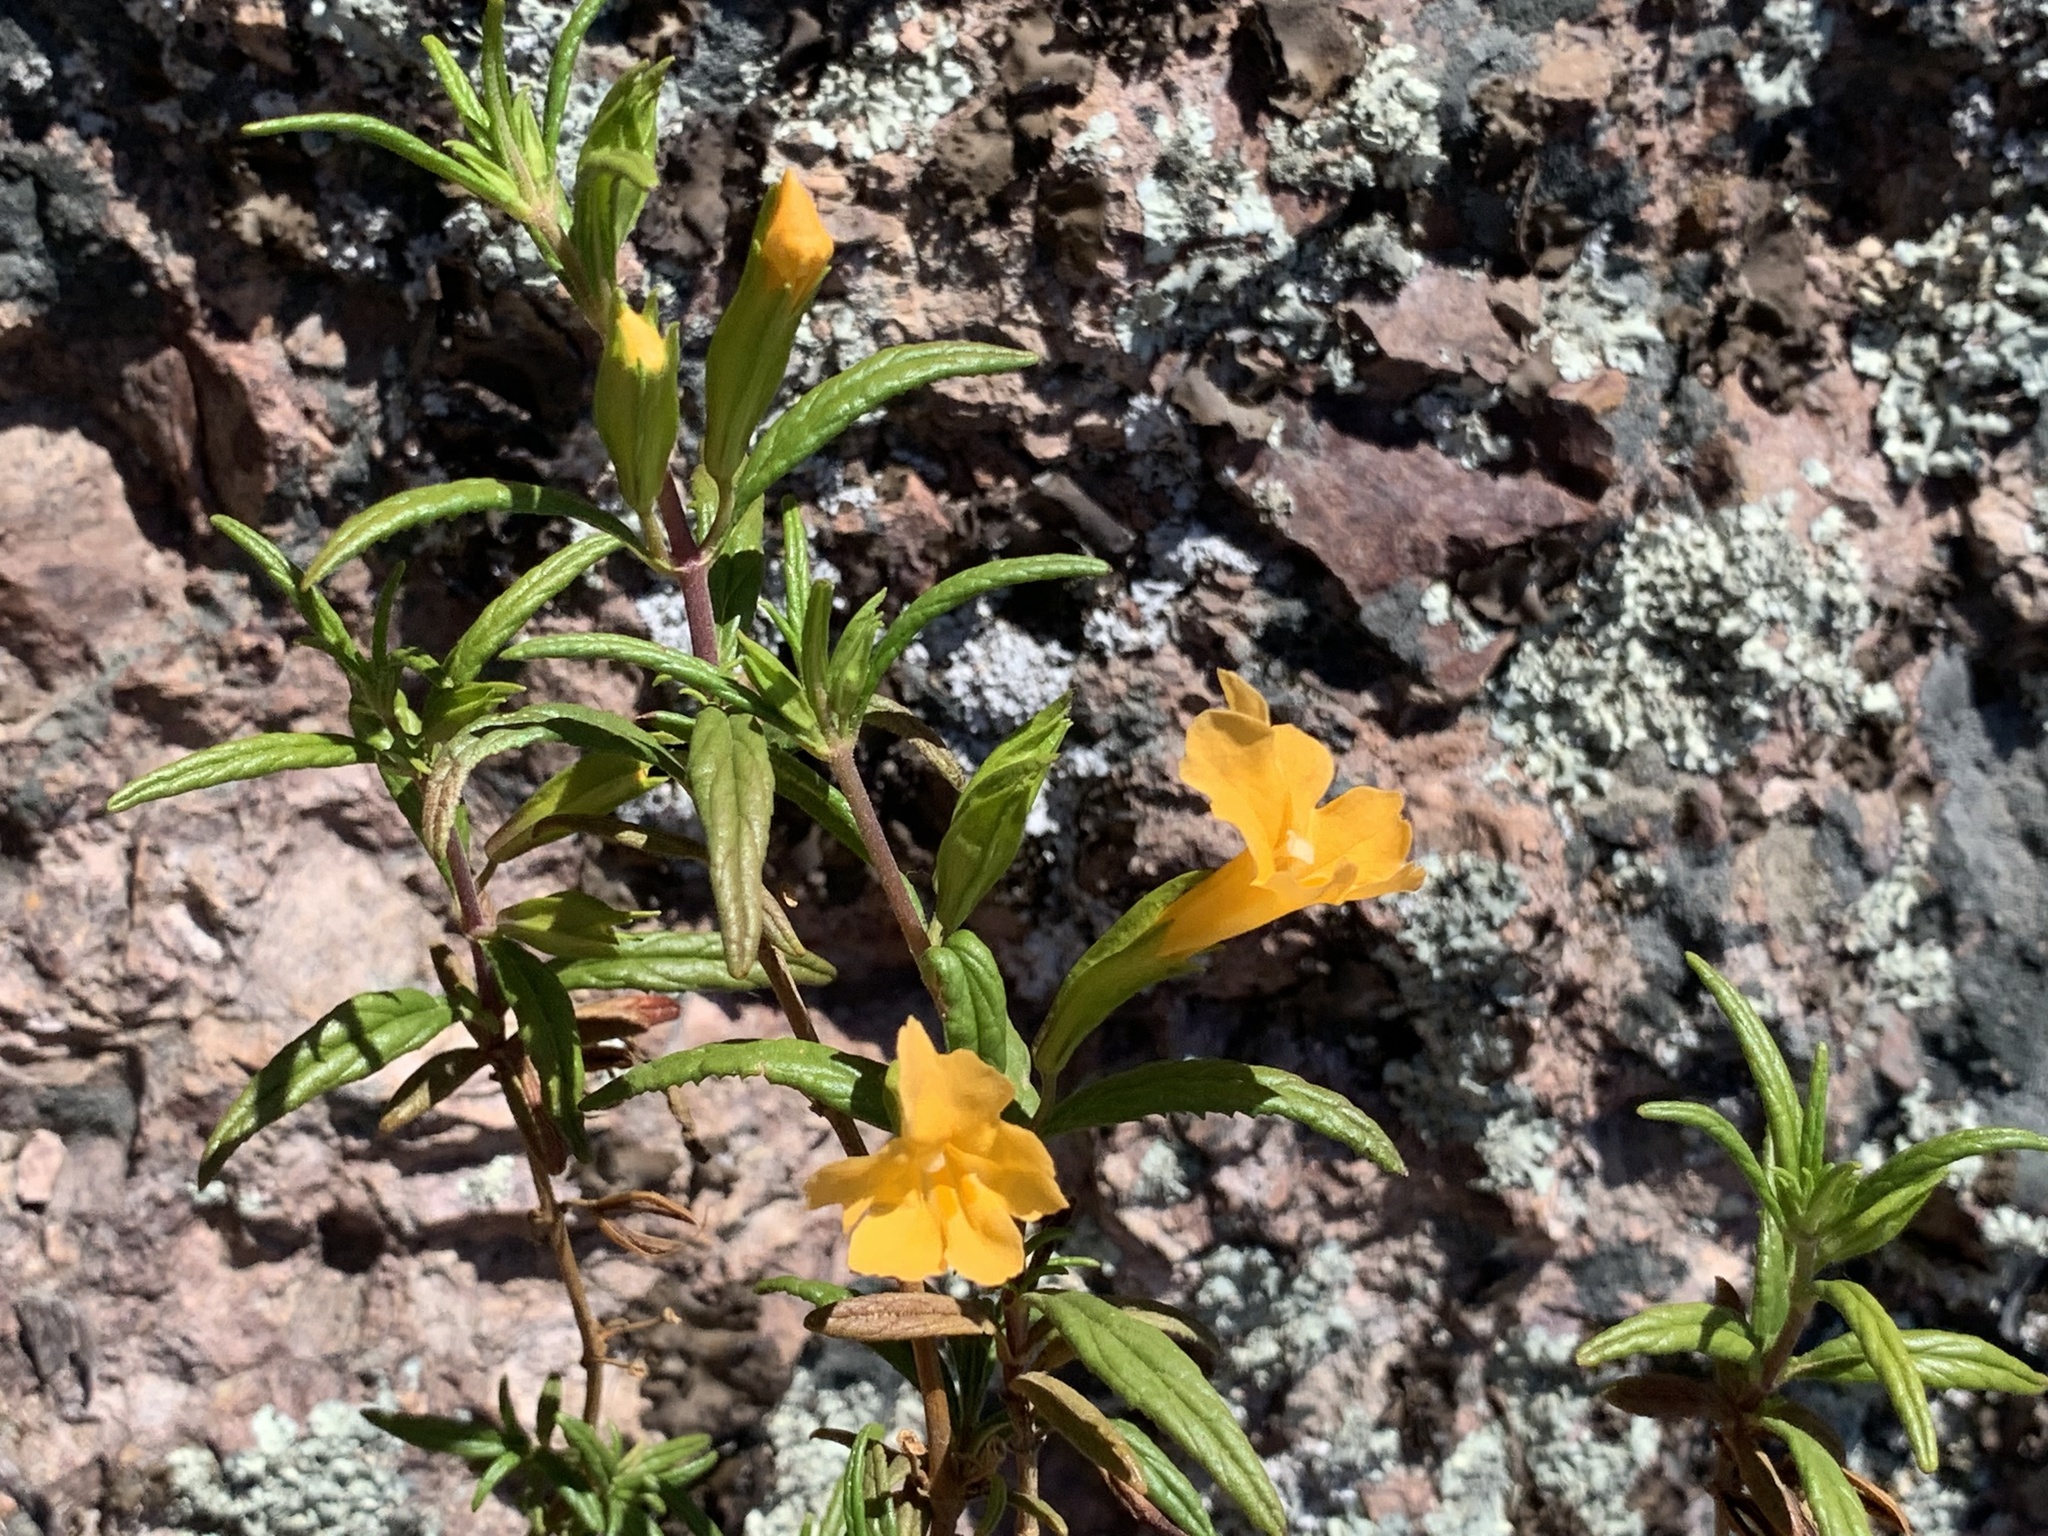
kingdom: Plantae
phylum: Tracheophyta
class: Magnoliopsida
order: Lamiales
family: Phrymaceae
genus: Diplacus
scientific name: Diplacus aurantiacus
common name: Bush monkey-flower
